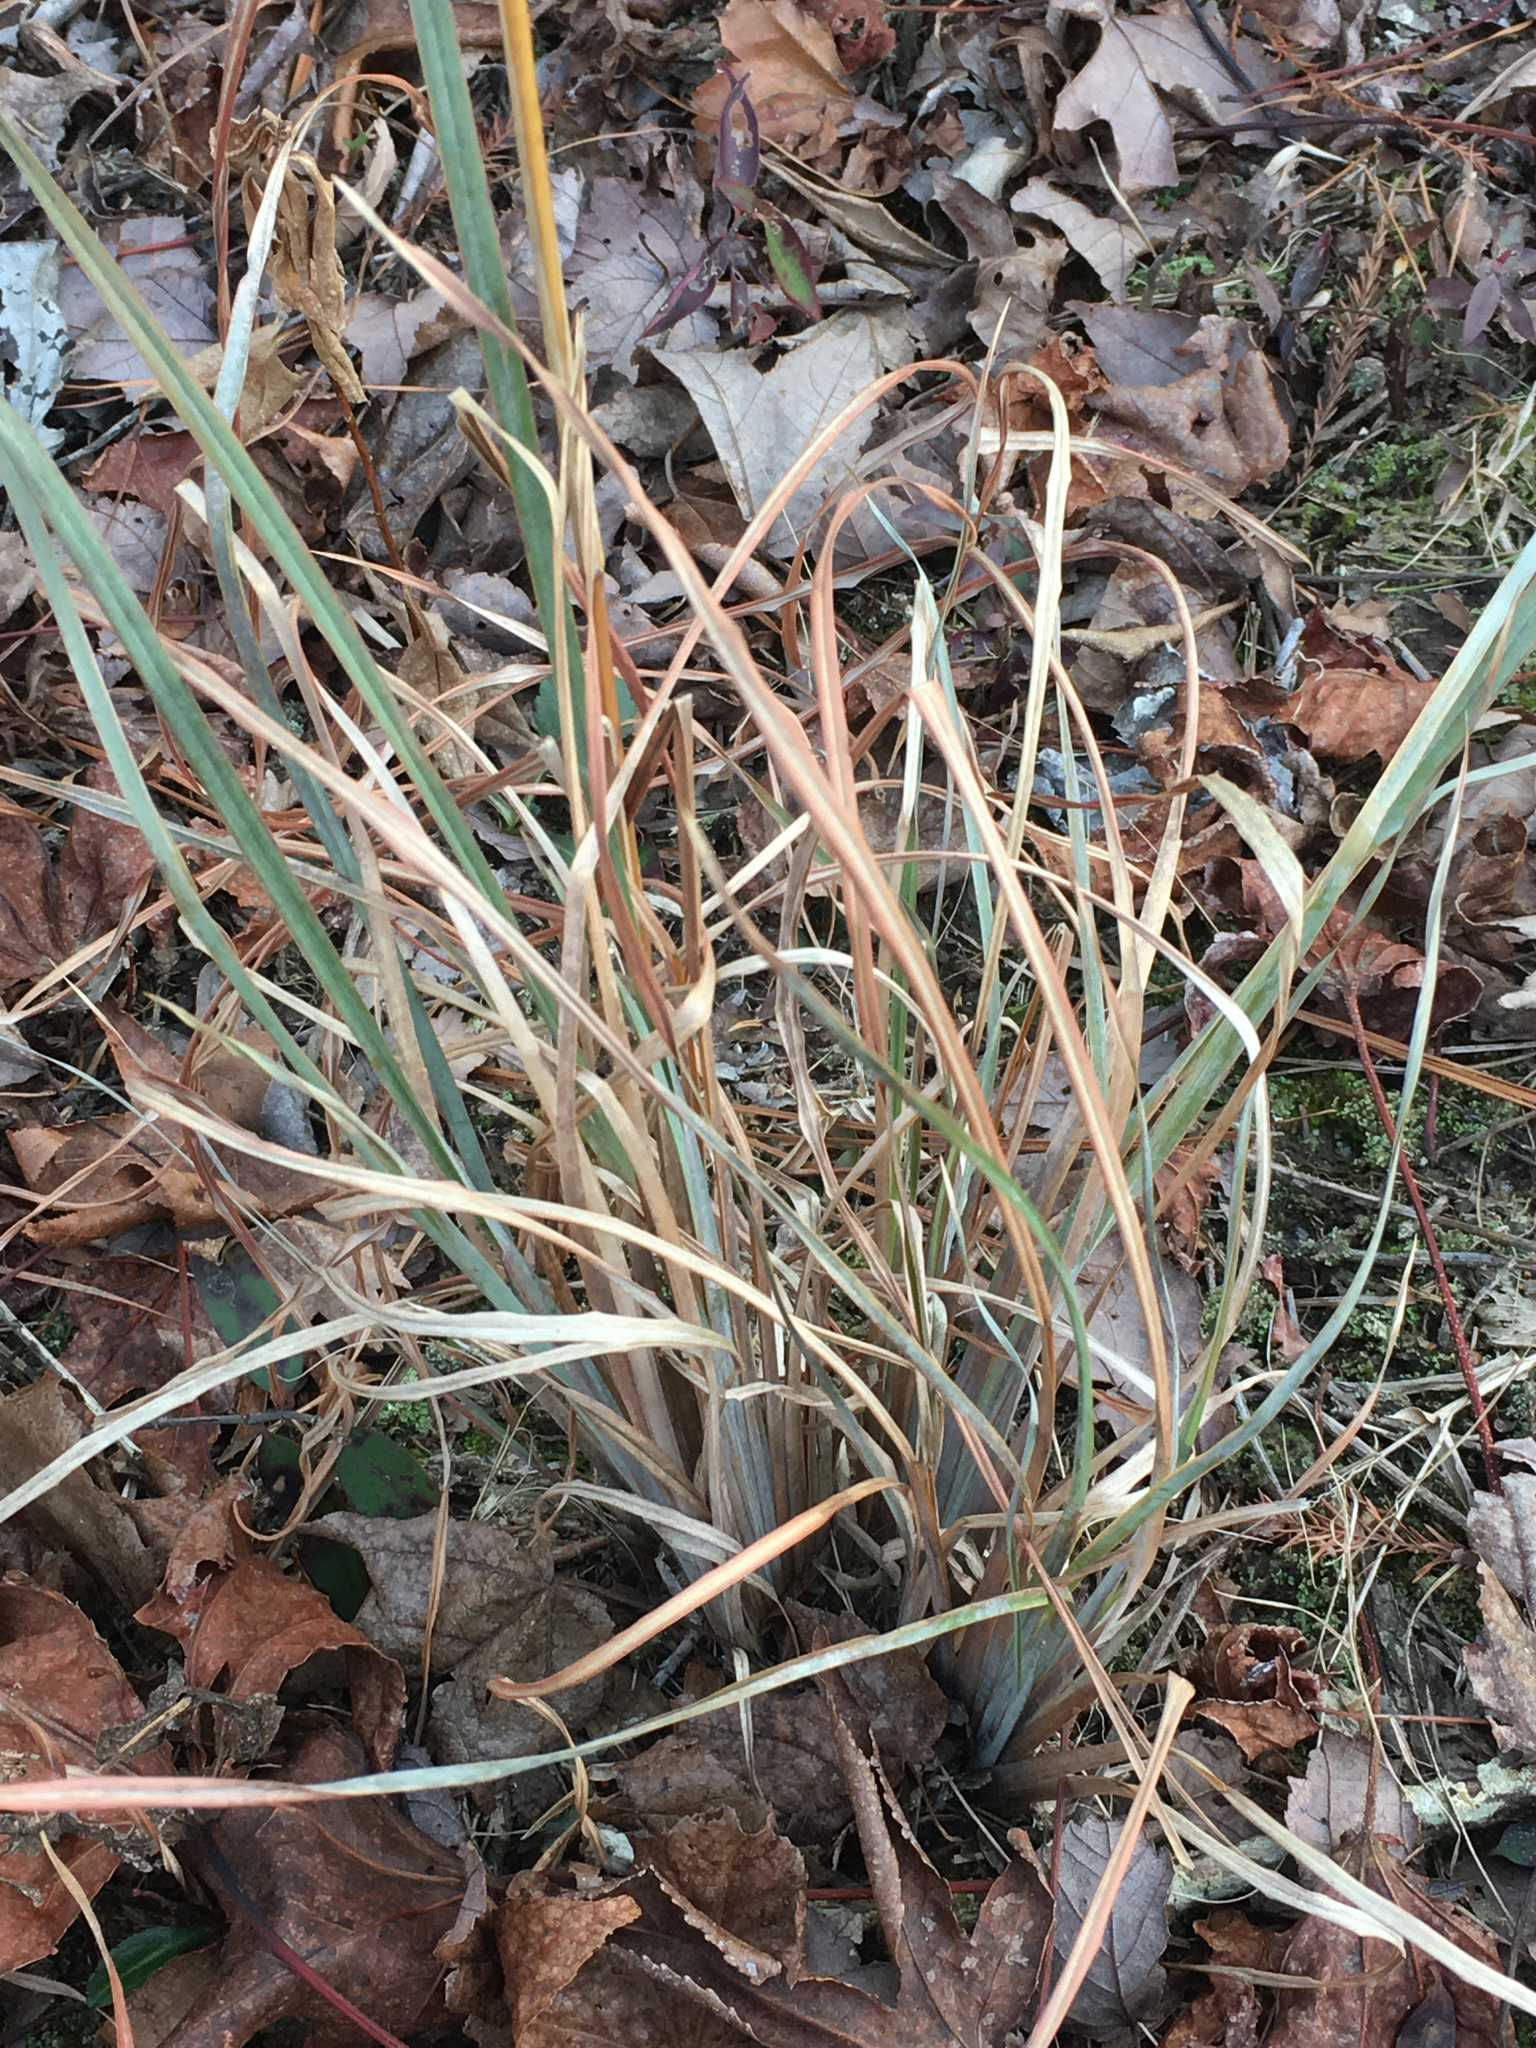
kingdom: Plantae
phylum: Tracheophyta
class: Liliopsida
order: Poales
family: Poaceae
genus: Andropogon
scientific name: Andropogon cretaceus
